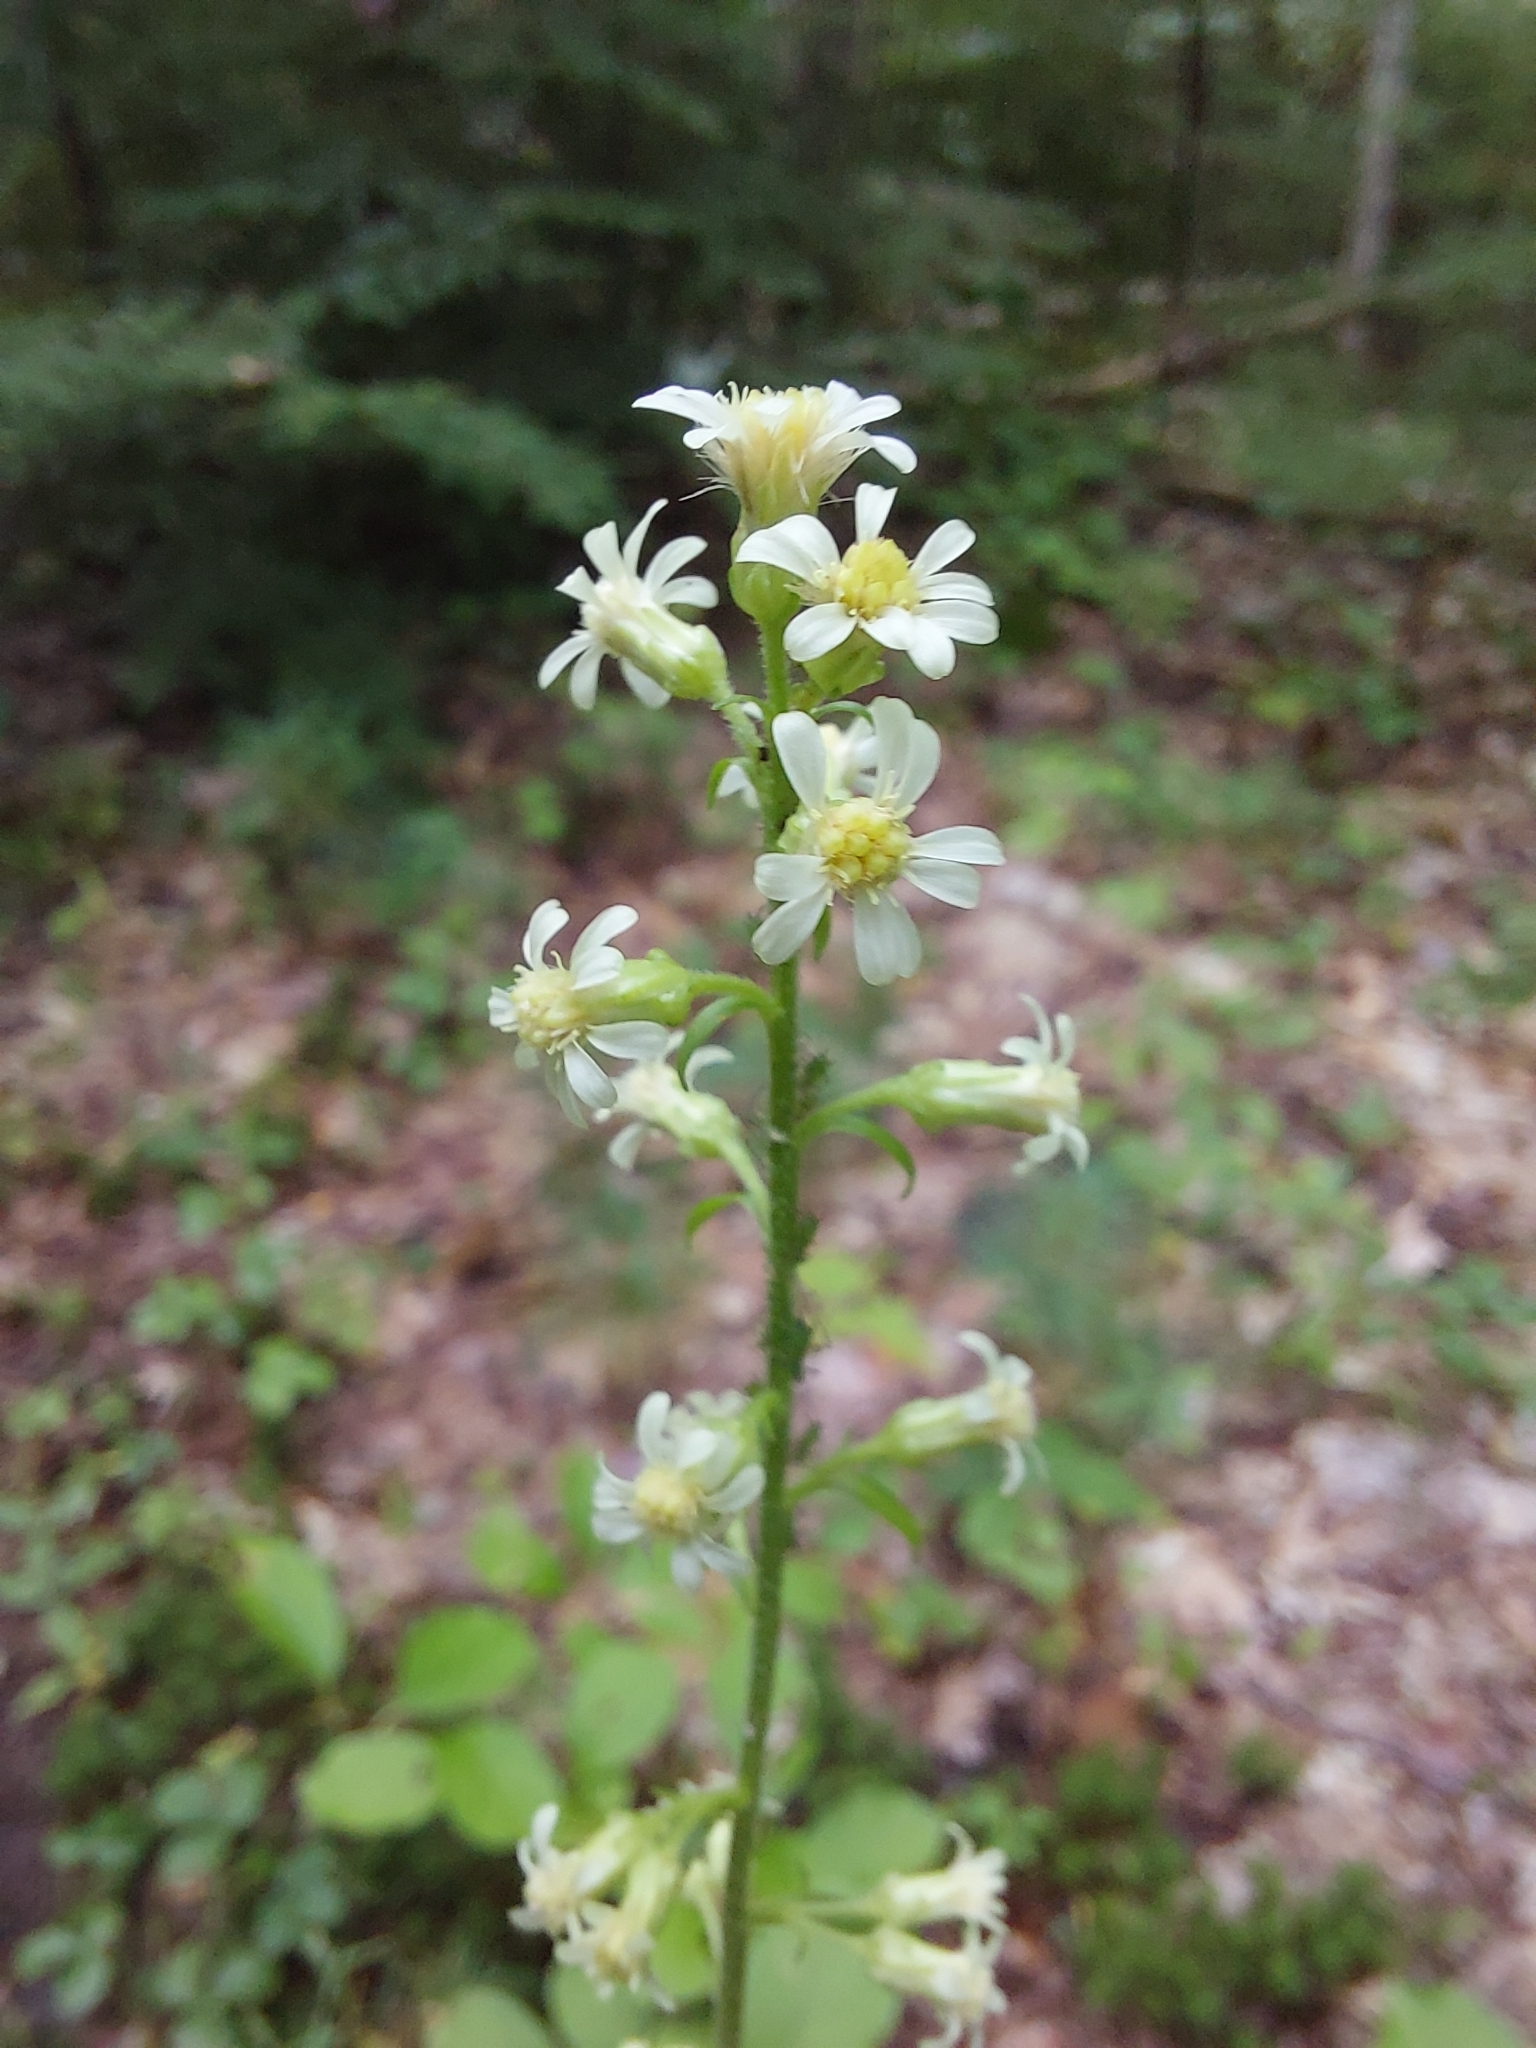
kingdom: Plantae
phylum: Tracheophyta
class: Magnoliopsida
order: Asterales
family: Asteraceae
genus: Solidago
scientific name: Solidago bicolor
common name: Silverrod
